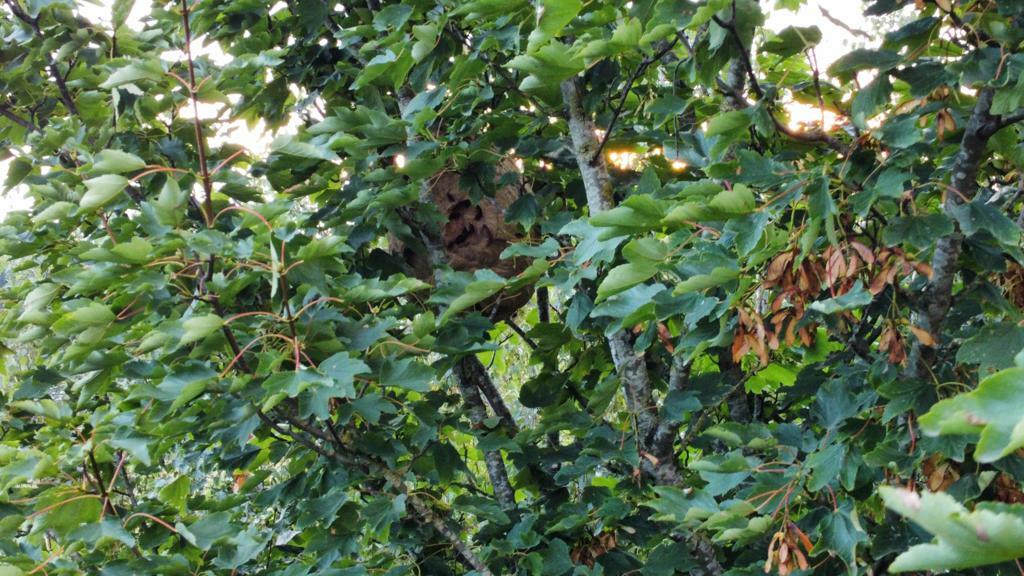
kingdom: Animalia
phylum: Arthropoda
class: Insecta
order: Hymenoptera
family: Vespidae
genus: Vespa
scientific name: Vespa velutina
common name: Asian hornet
